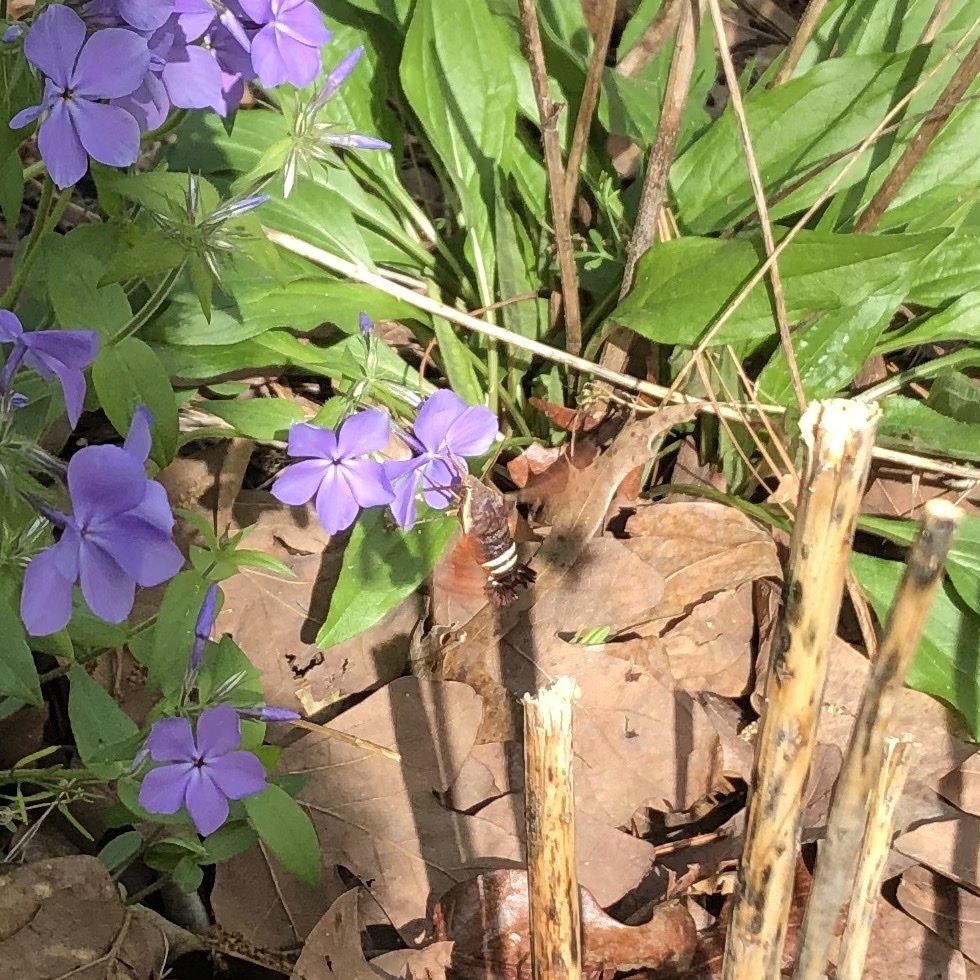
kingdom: Animalia
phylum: Arthropoda
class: Insecta
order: Lepidoptera
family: Sphingidae
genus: Amphion
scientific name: Amphion floridensis
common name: Nessus sphinx
